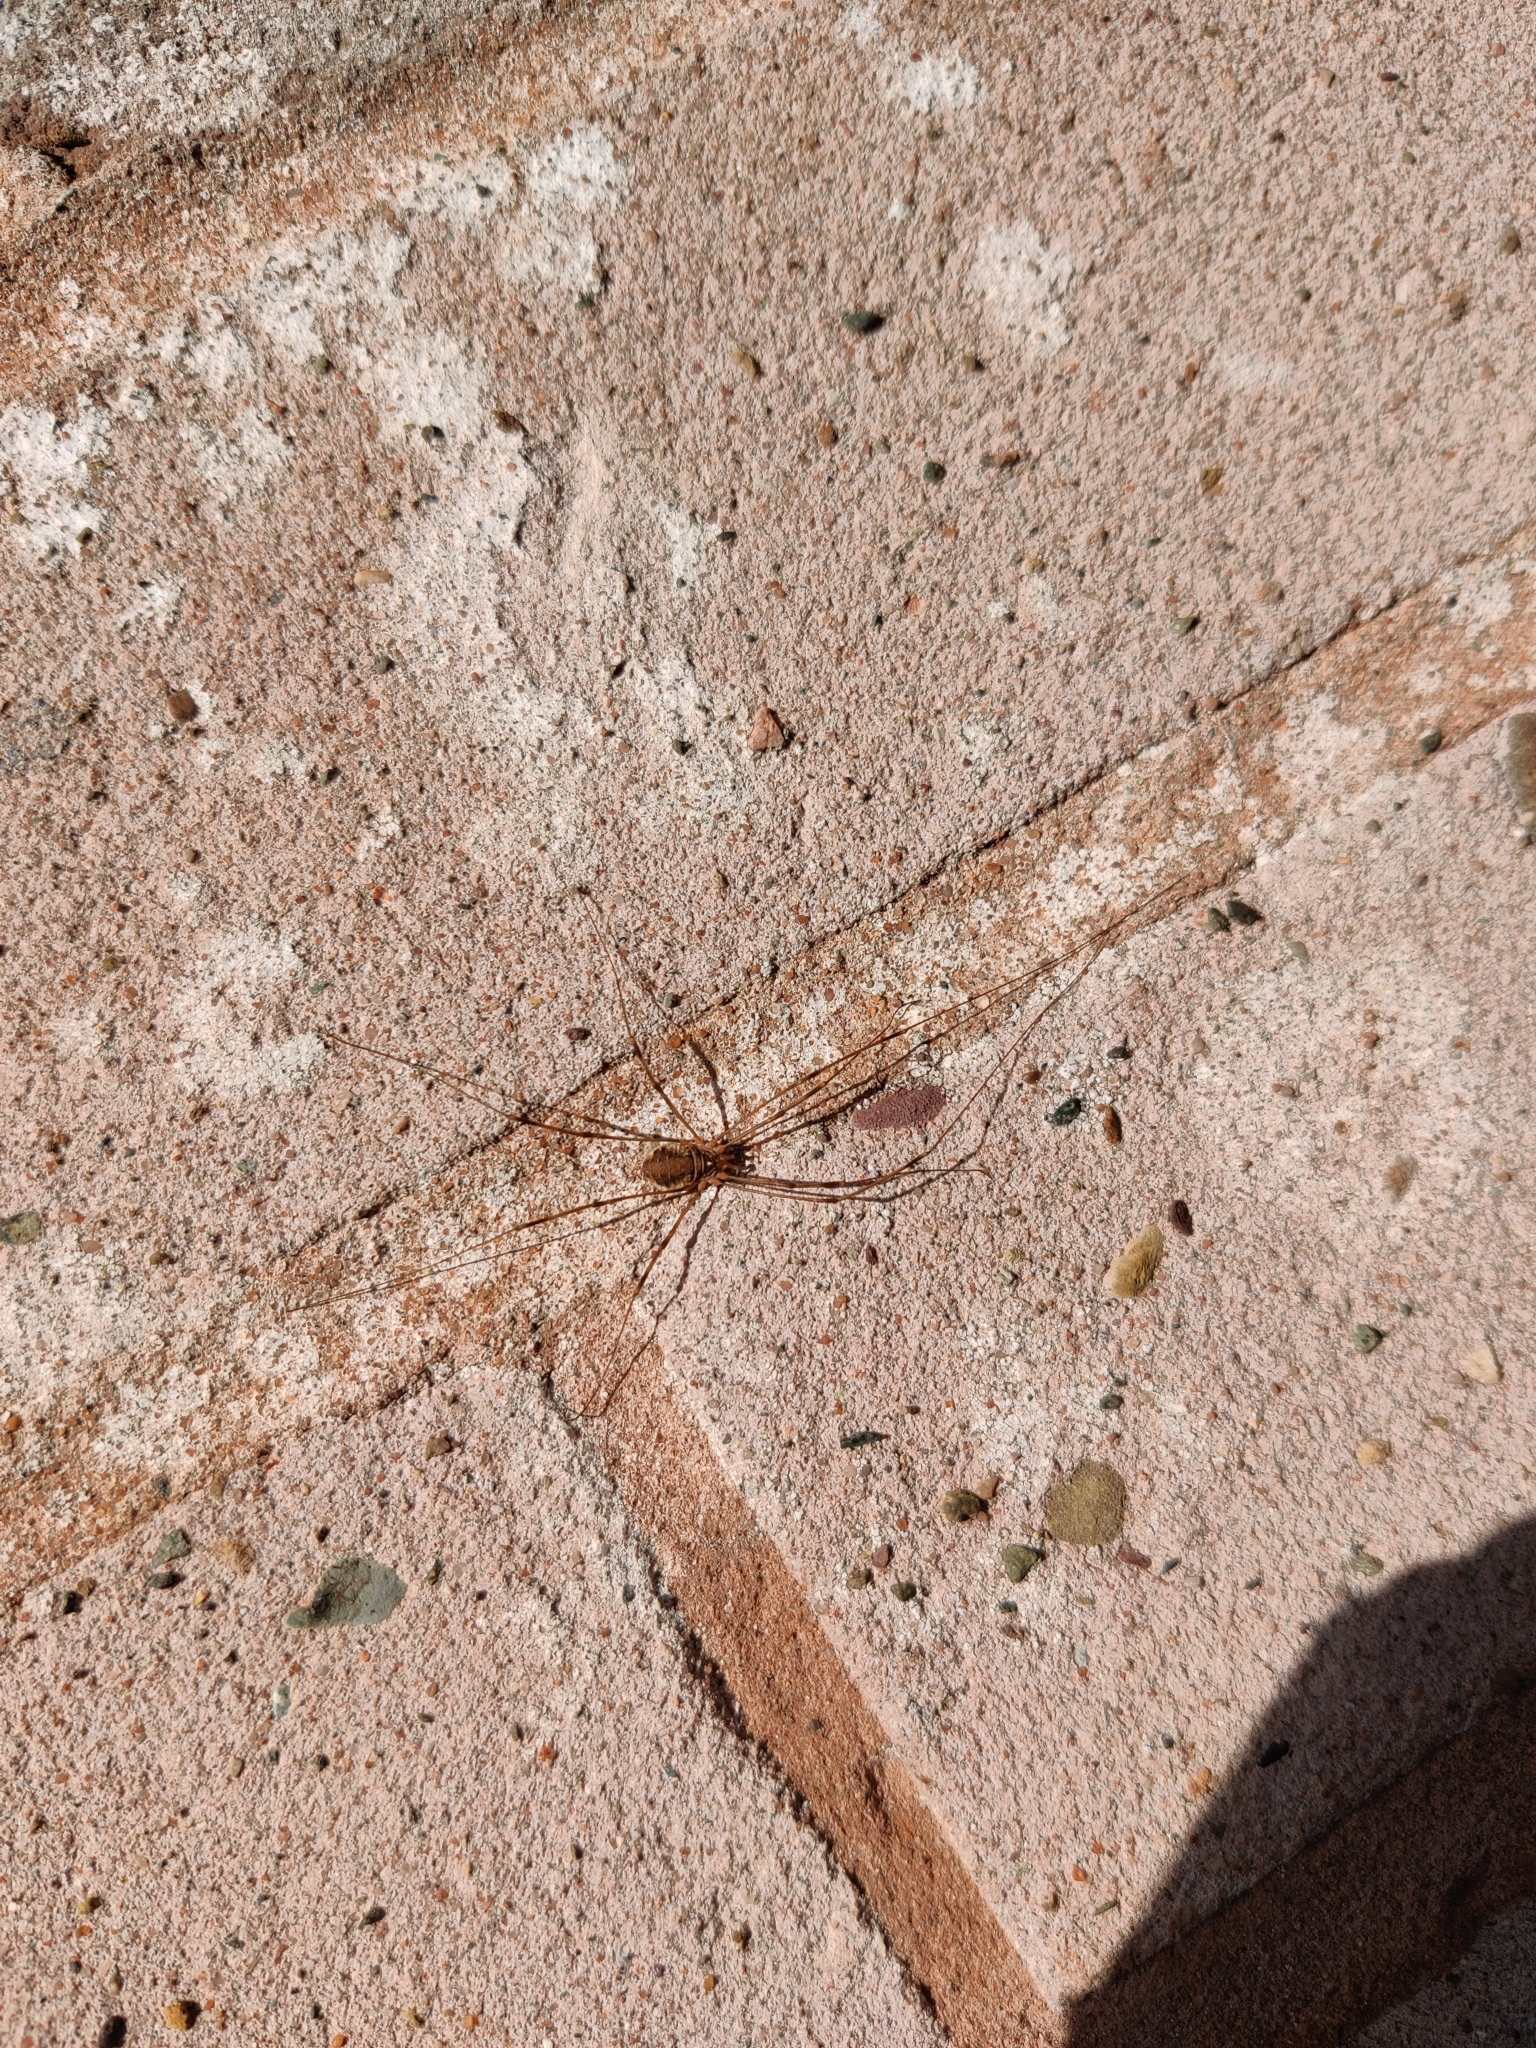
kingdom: Animalia
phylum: Arthropoda
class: Arachnida
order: Opiliones
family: Phalangiidae
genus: Opilio
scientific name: Opilio canestrinii
